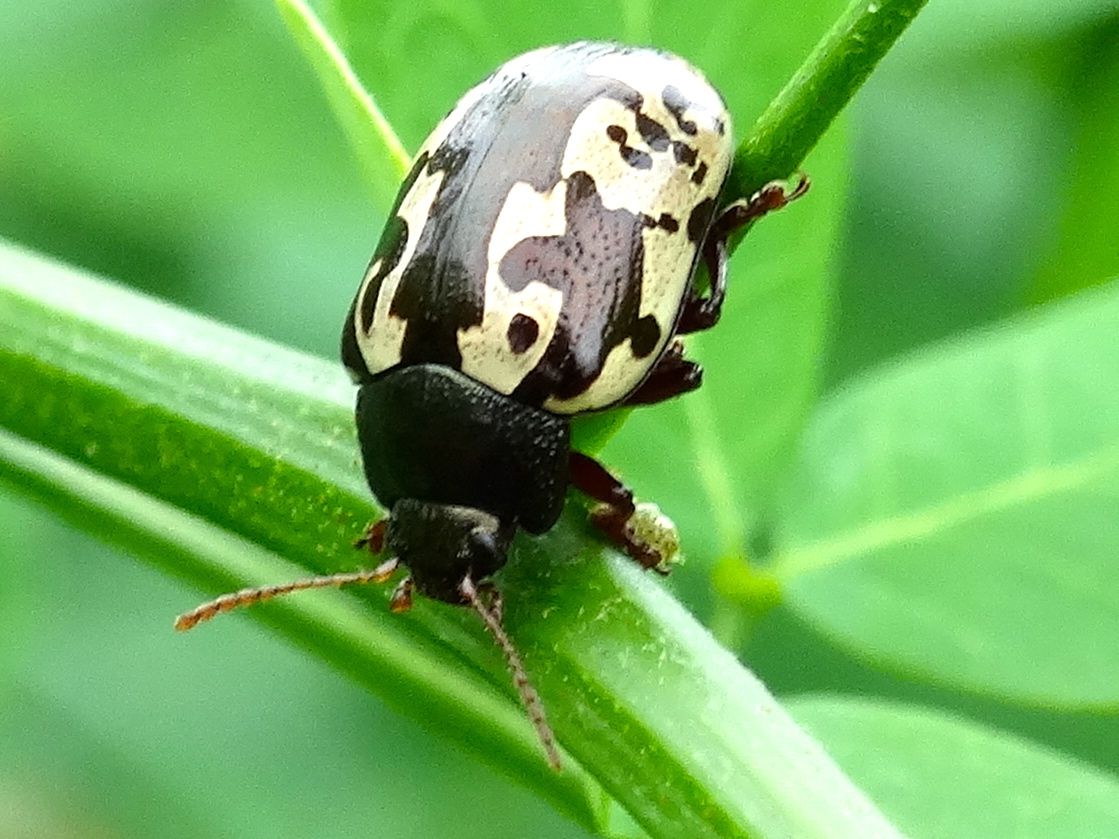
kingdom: Animalia
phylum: Arthropoda
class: Insecta
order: Coleoptera
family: Chrysomelidae
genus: Calligrapha
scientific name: Calligrapha intermedia
